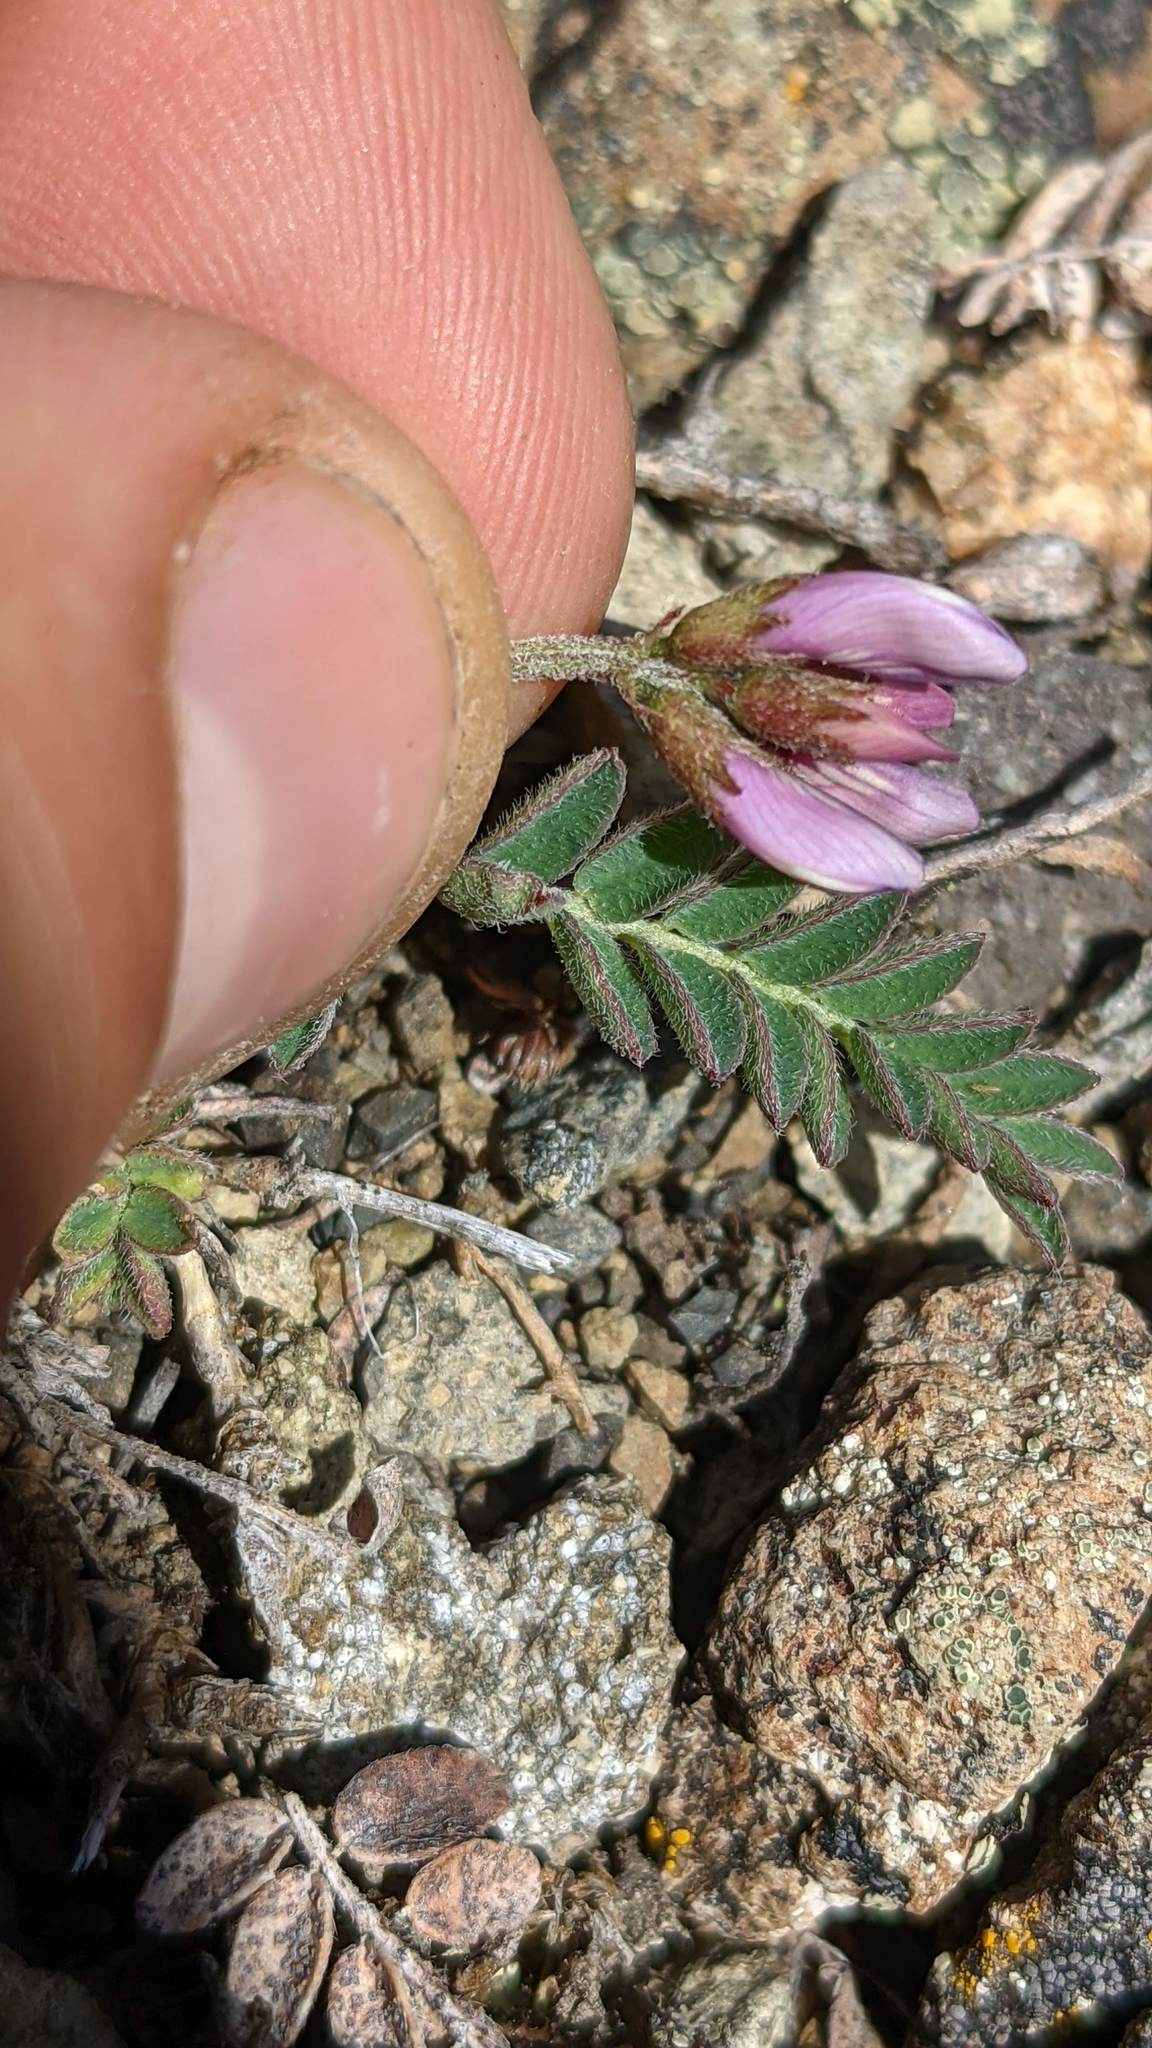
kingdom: Plantae
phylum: Tracheophyta
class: Magnoliopsida
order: Fabales
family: Fabaceae
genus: Astragalus
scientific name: Astragalus alpinus
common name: Alpine milk-vetch
